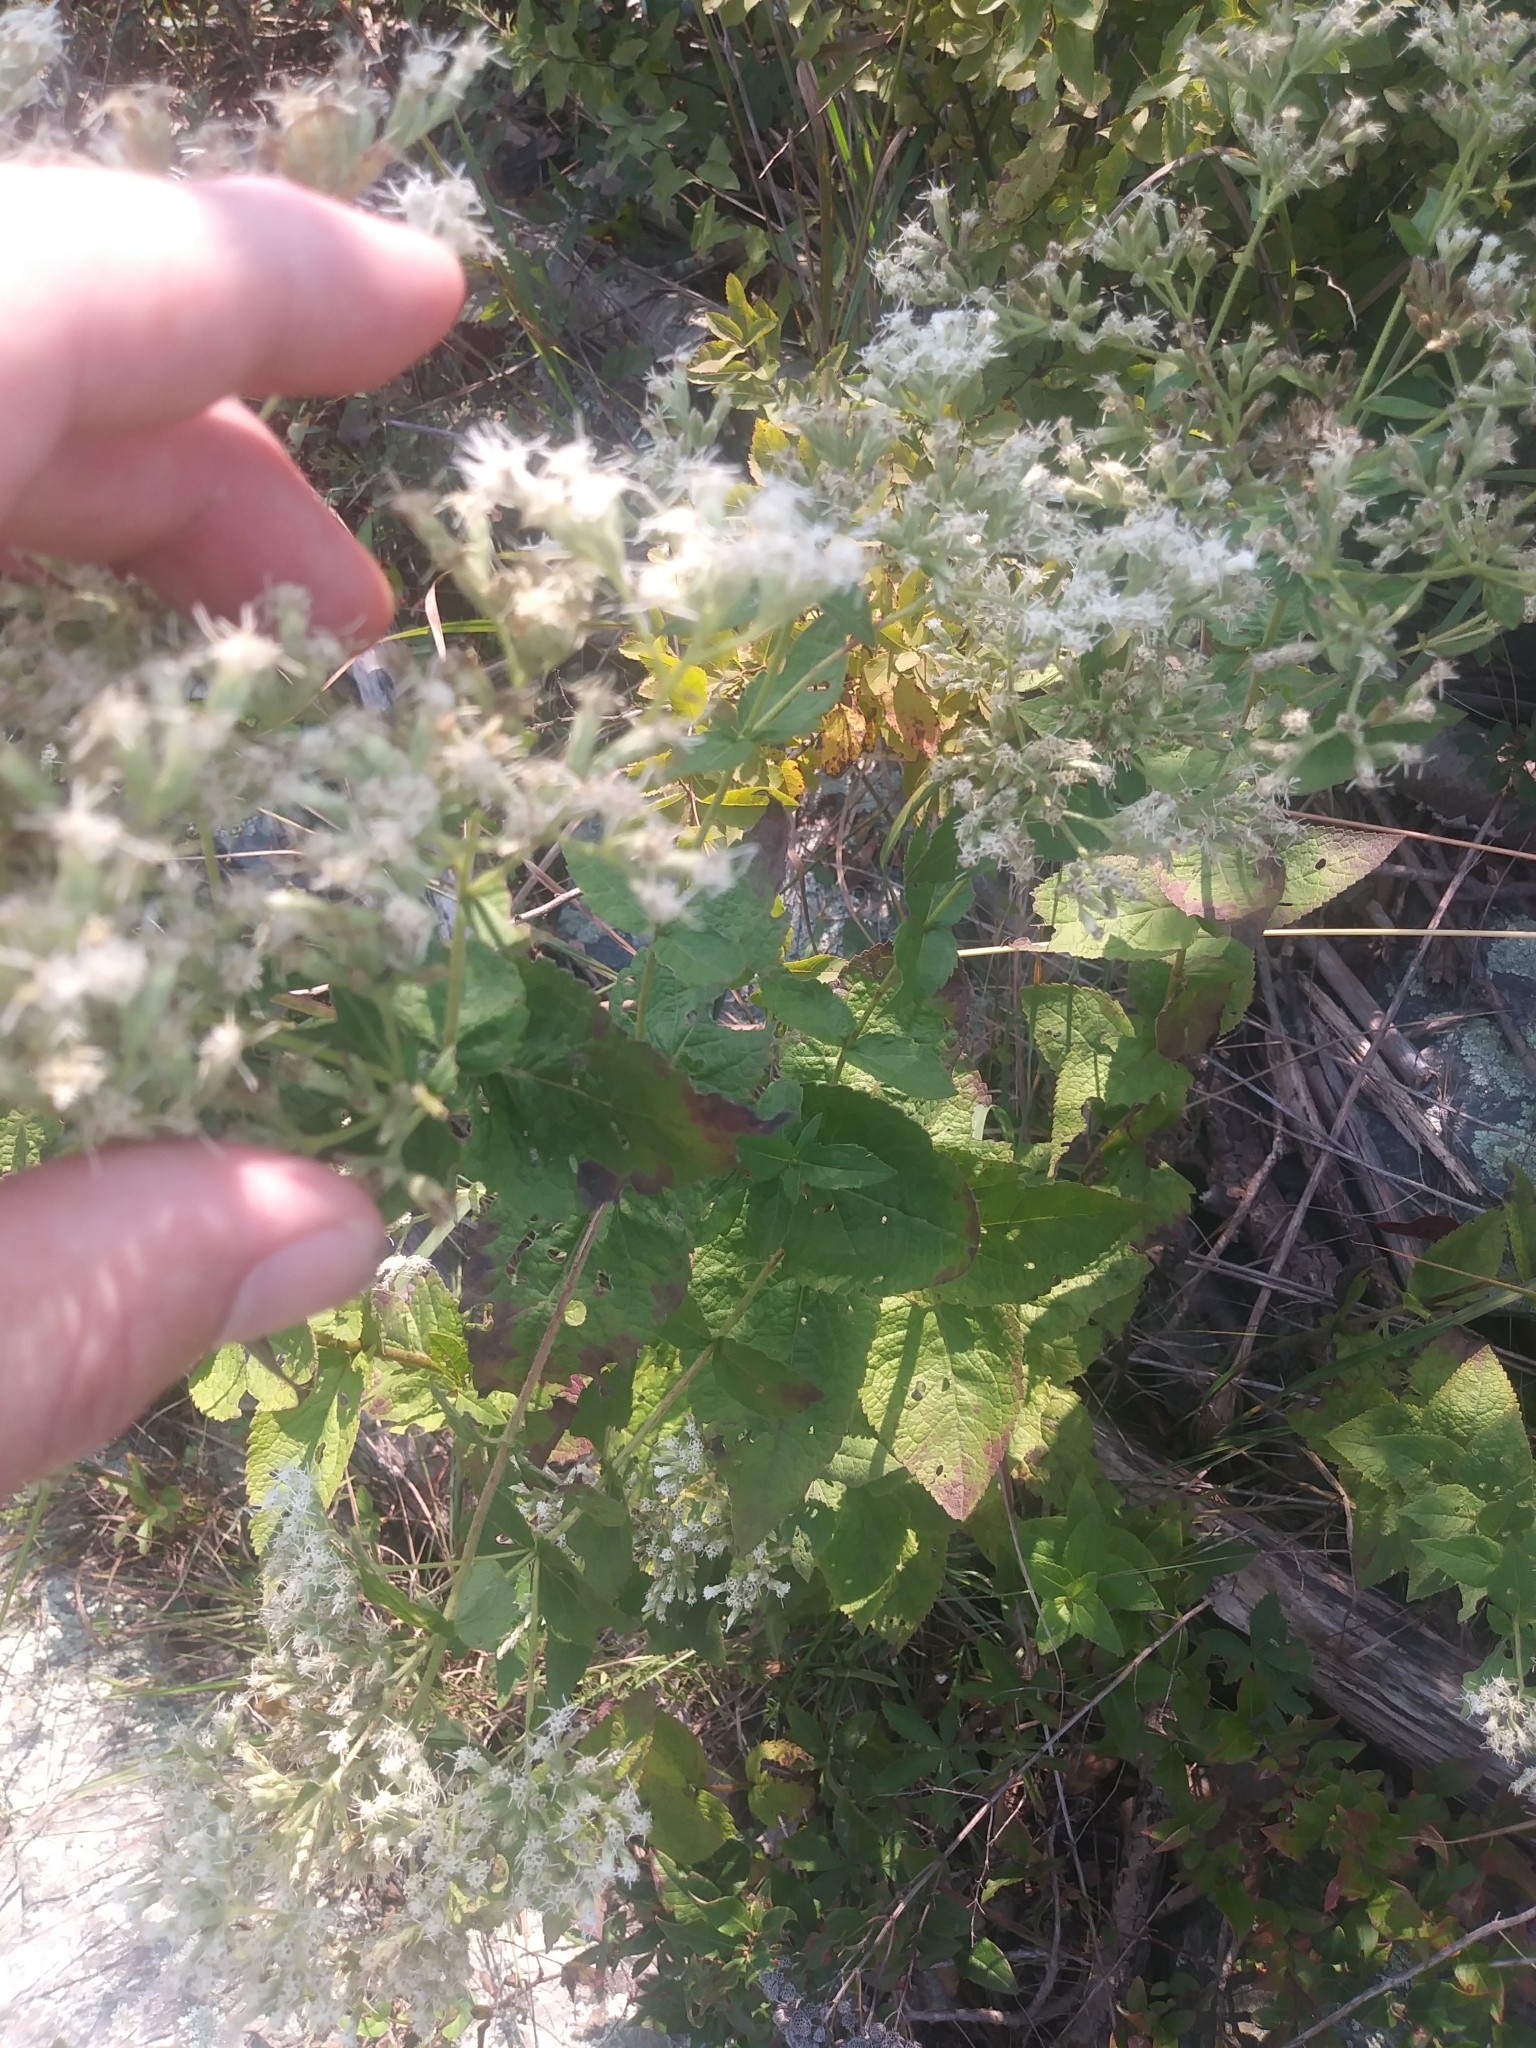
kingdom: Plantae
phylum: Tracheophyta
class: Magnoliopsida
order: Asterales
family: Asteraceae
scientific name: Asteraceae
